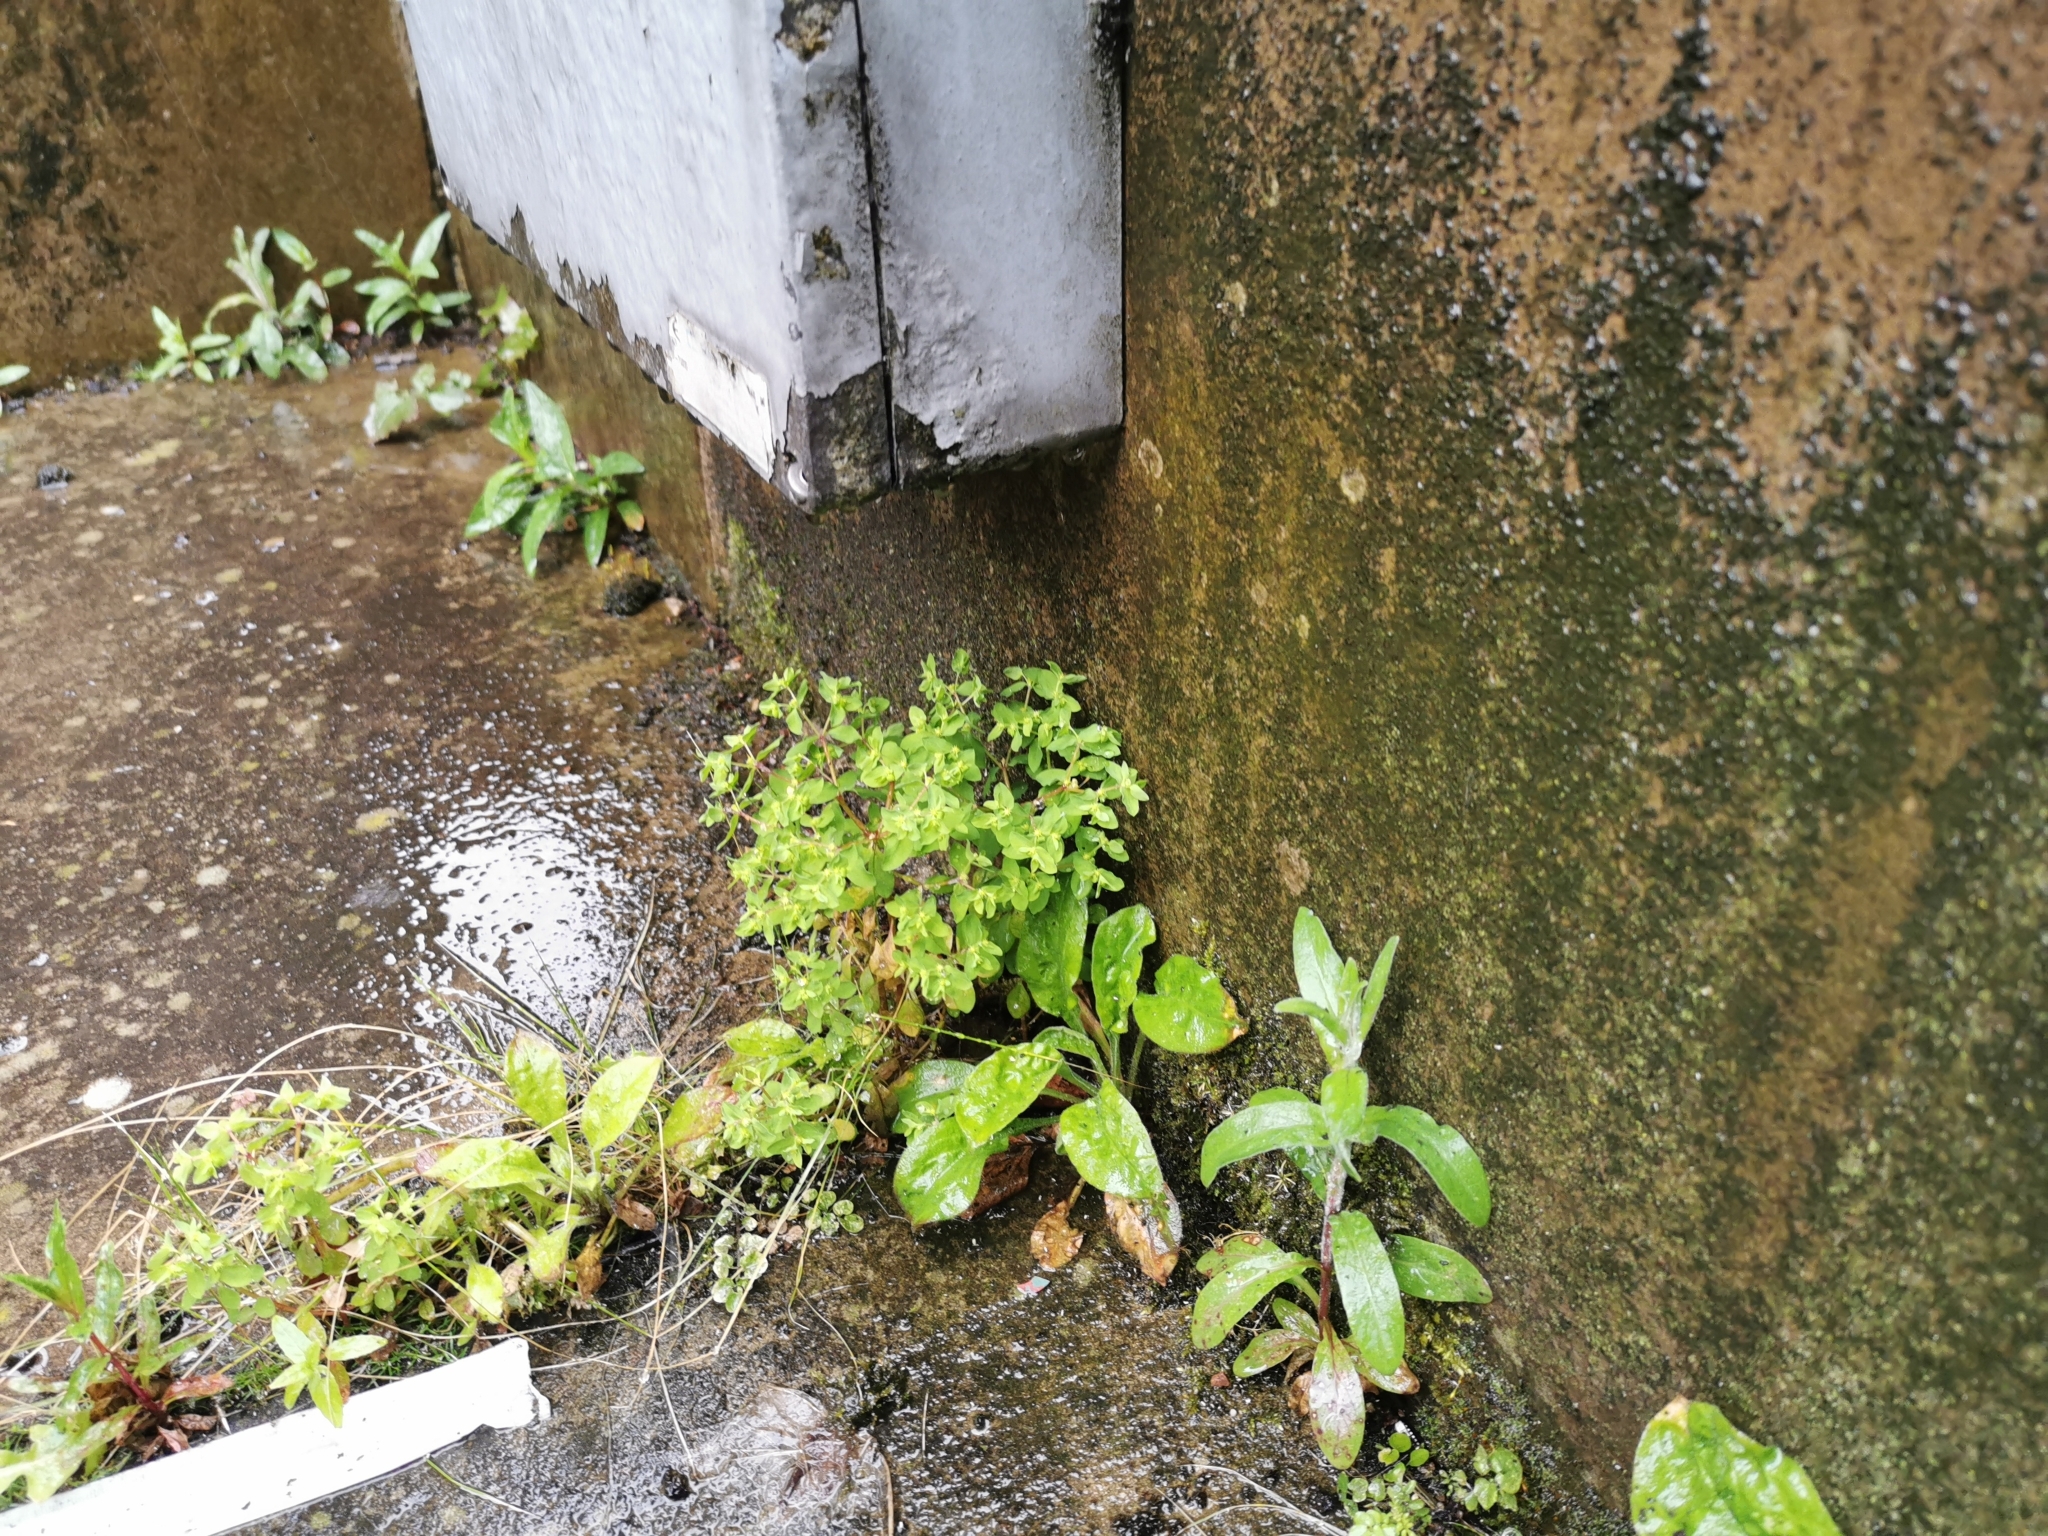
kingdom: Plantae
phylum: Tracheophyta
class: Magnoliopsida
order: Malpighiales
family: Euphorbiaceae
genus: Euphorbia
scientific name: Euphorbia peplus
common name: Petty spurge
